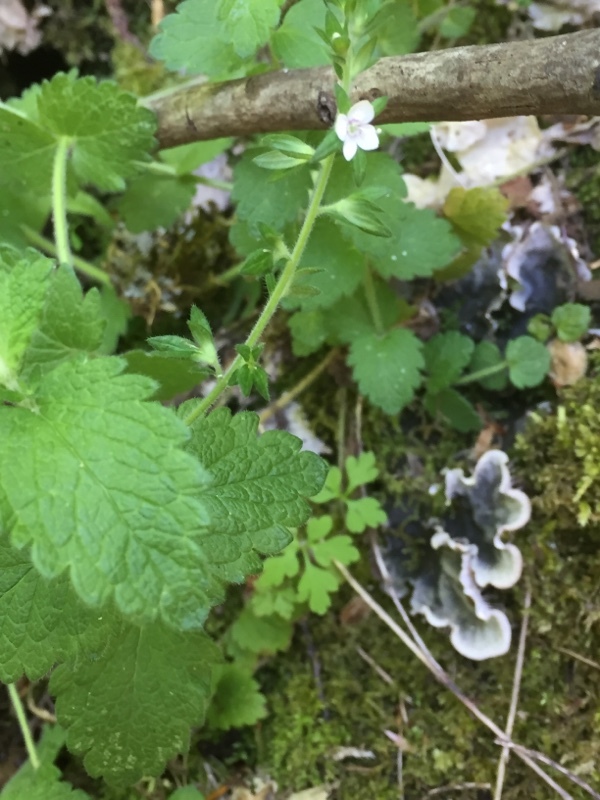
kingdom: Plantae
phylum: Tracheophyta
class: Magnoliopsida
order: Lamiales
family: Plantaginaceae
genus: Veronica
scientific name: Veronica micrantha
